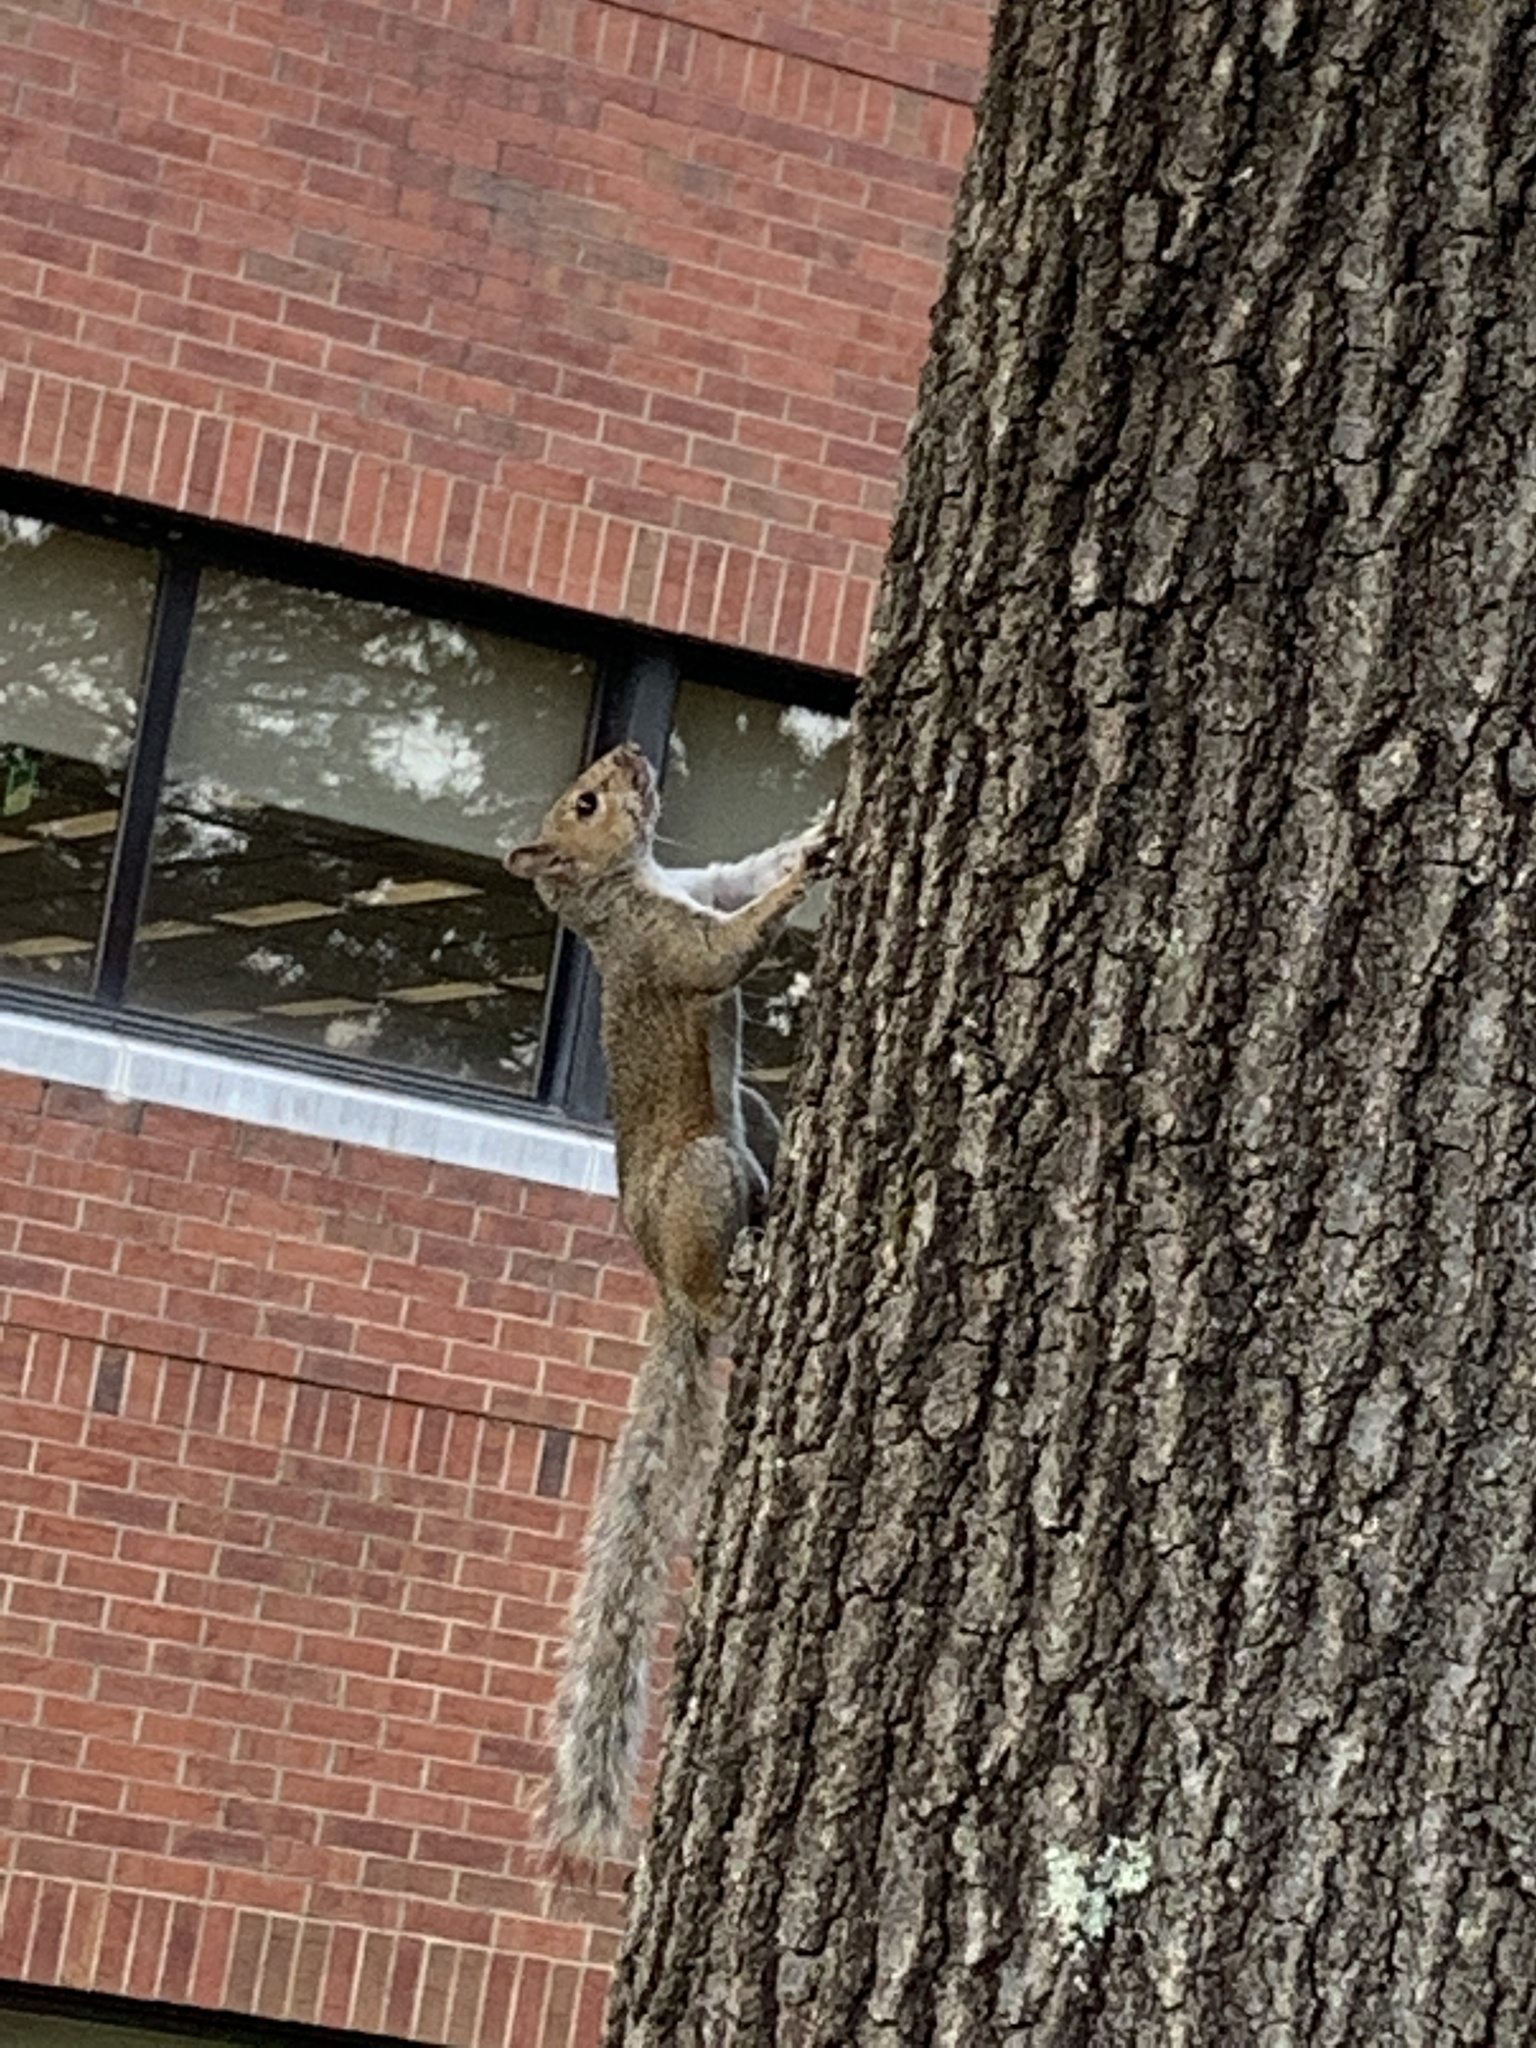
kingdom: Animalia
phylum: Chordata
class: Mammalia
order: Rodentia
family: Sciuridae
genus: Sciurus
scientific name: Sciurus carolinensis
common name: Eastern gray squirrel
